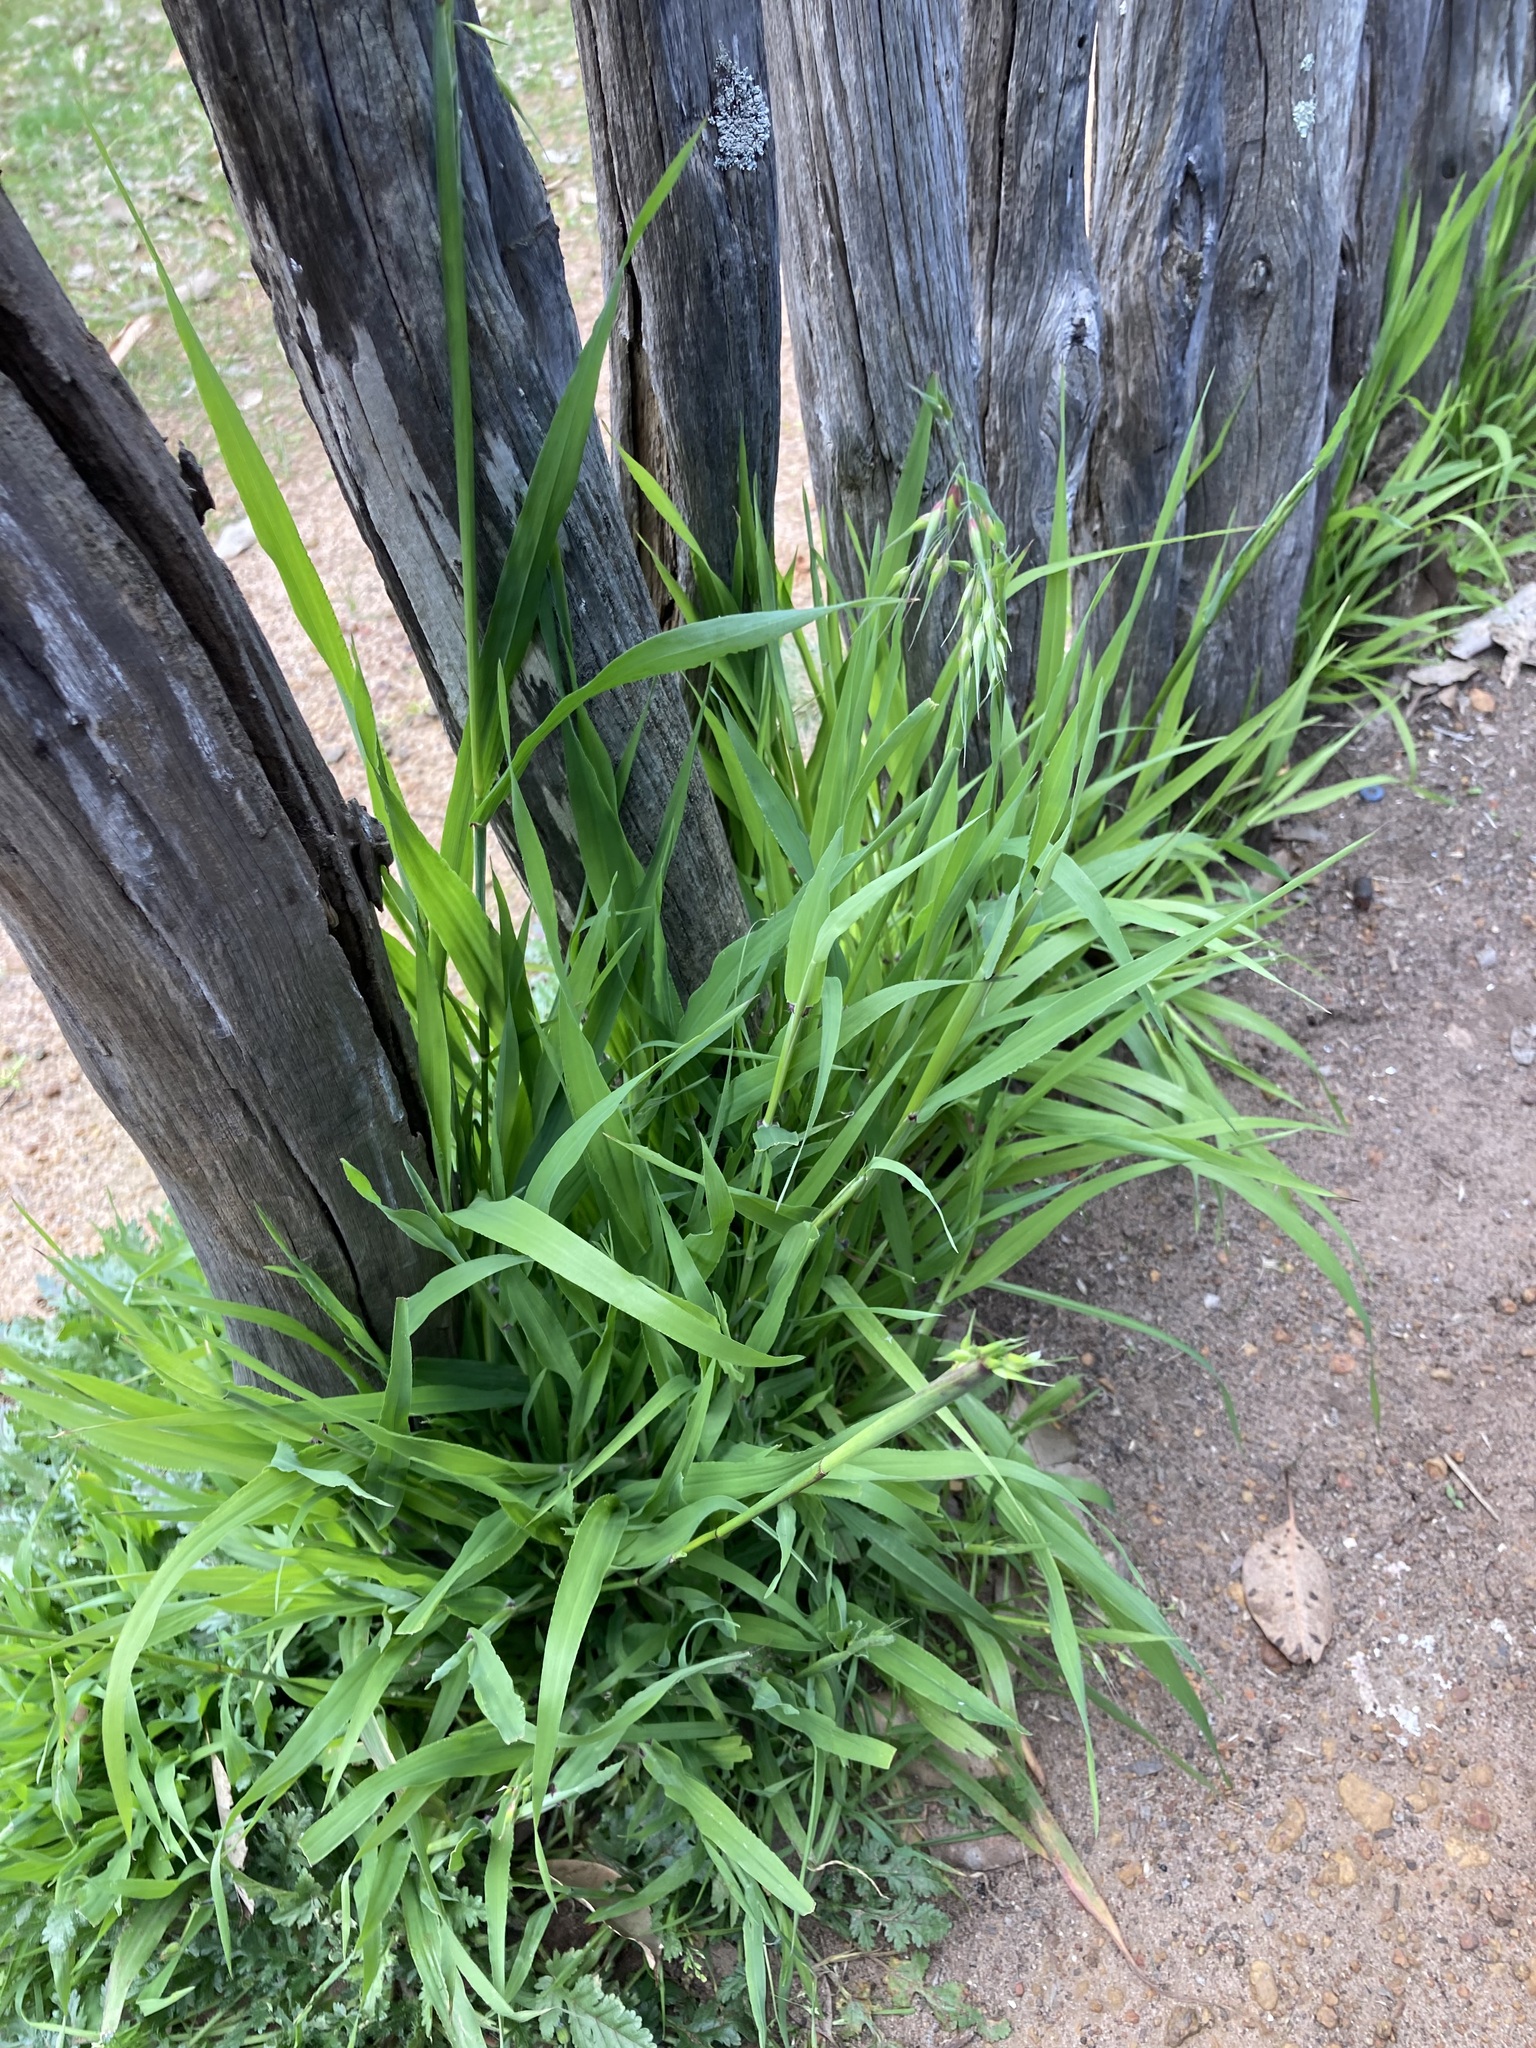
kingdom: Plantae
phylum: Tracheophyta
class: Liliopsida
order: Poales
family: Poaceae
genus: Ehrharta
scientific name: Ehrharta longiflora
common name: Longflowered veldtgrass
